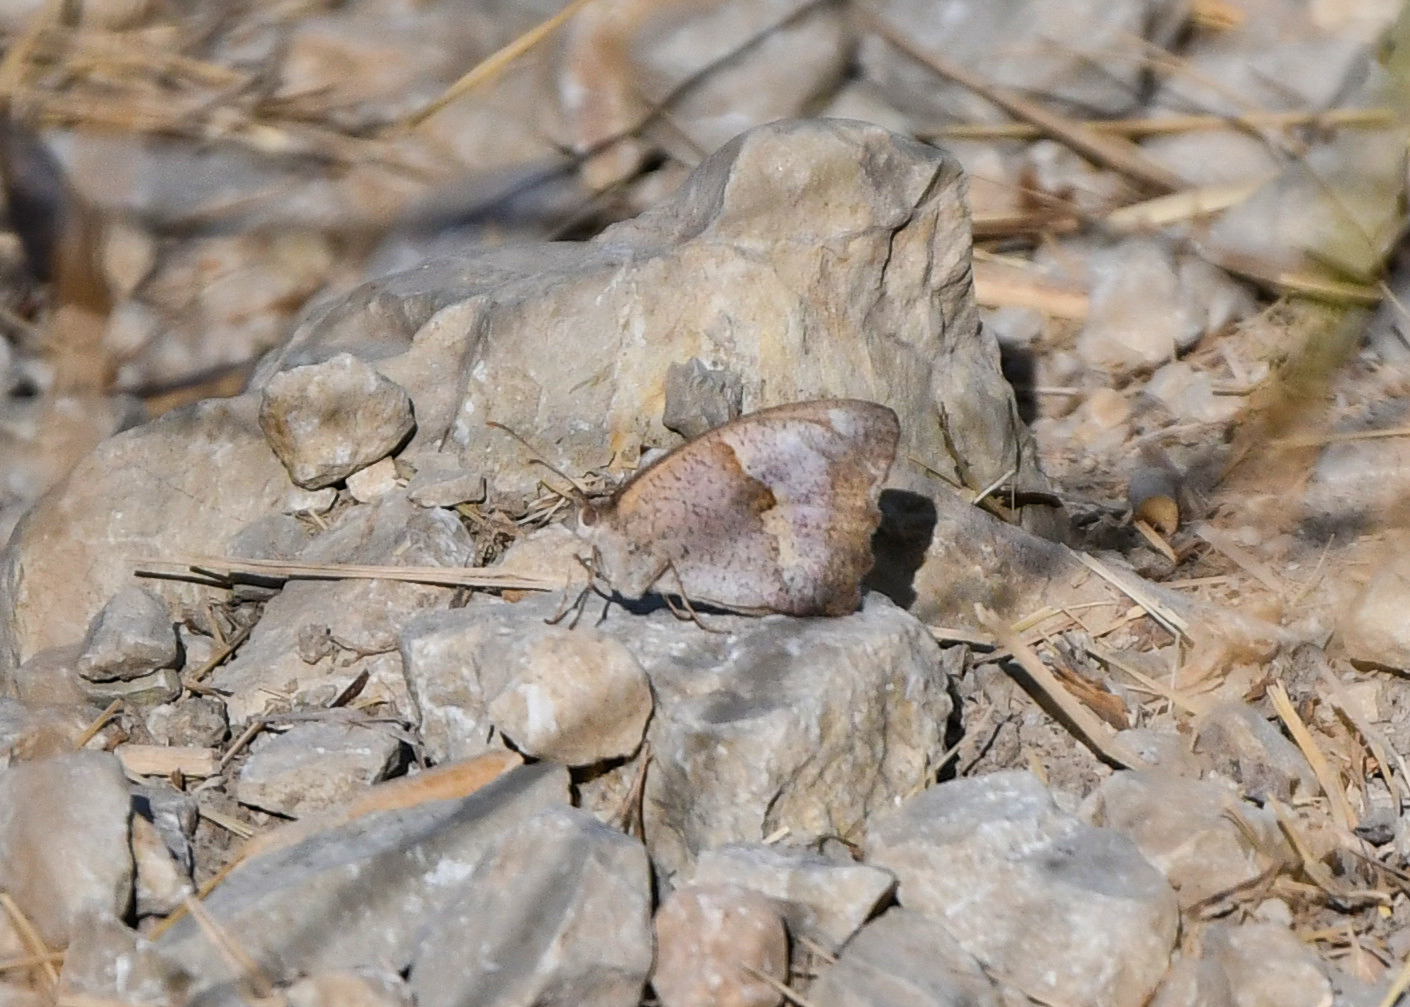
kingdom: Animalia
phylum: Arthropoda
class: Insecta
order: Lepidoptera
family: Nymphalidae
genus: Maniola
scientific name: Maniola jurtina
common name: Meadow brown
